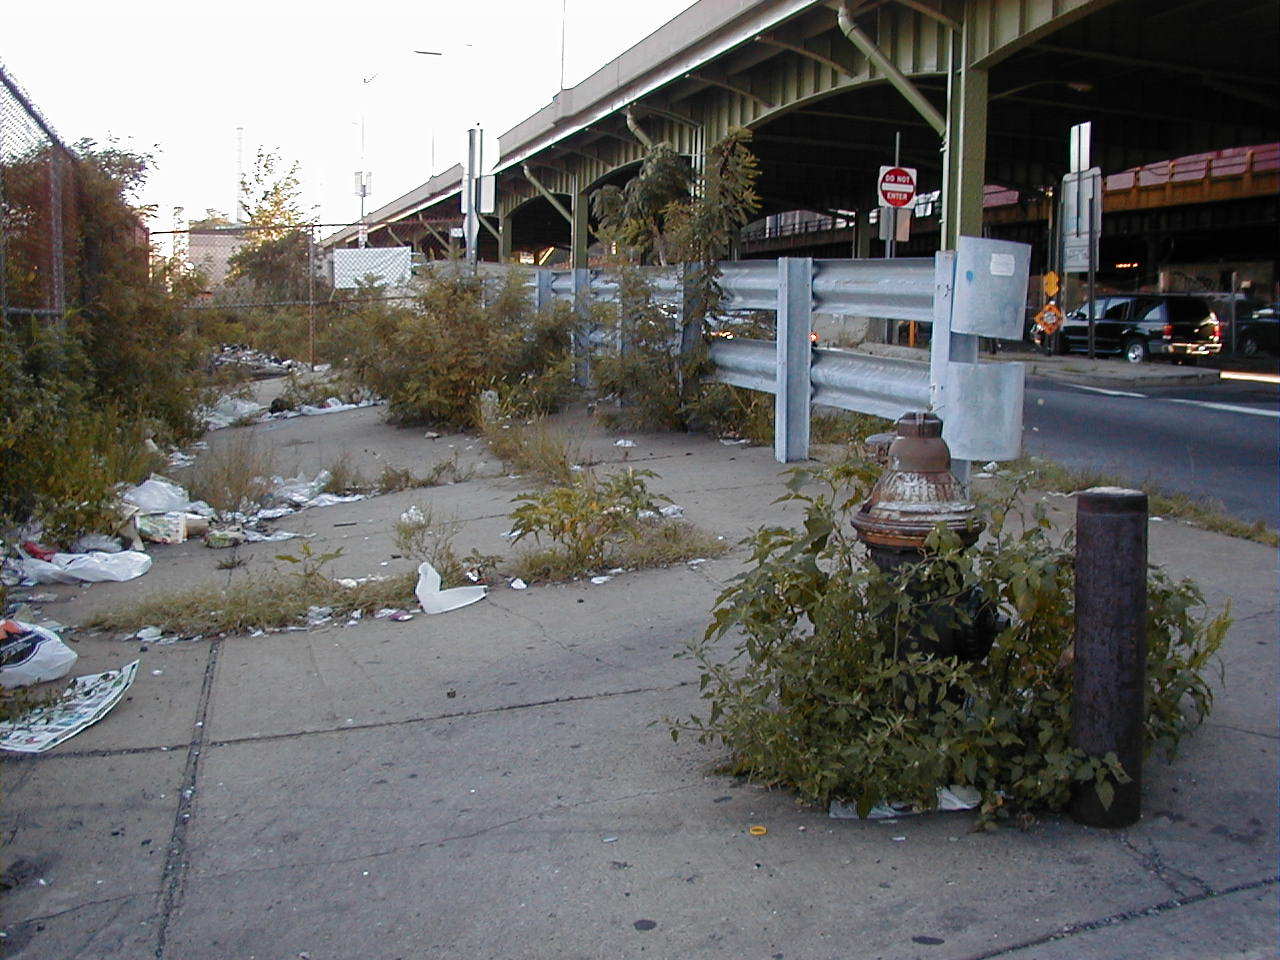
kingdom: Plantae
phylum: Tracheophyta
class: Magnoliopsida
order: Solanales
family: Solanaceae
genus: Datura
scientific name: Datura stramonium
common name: Thorn-apple
